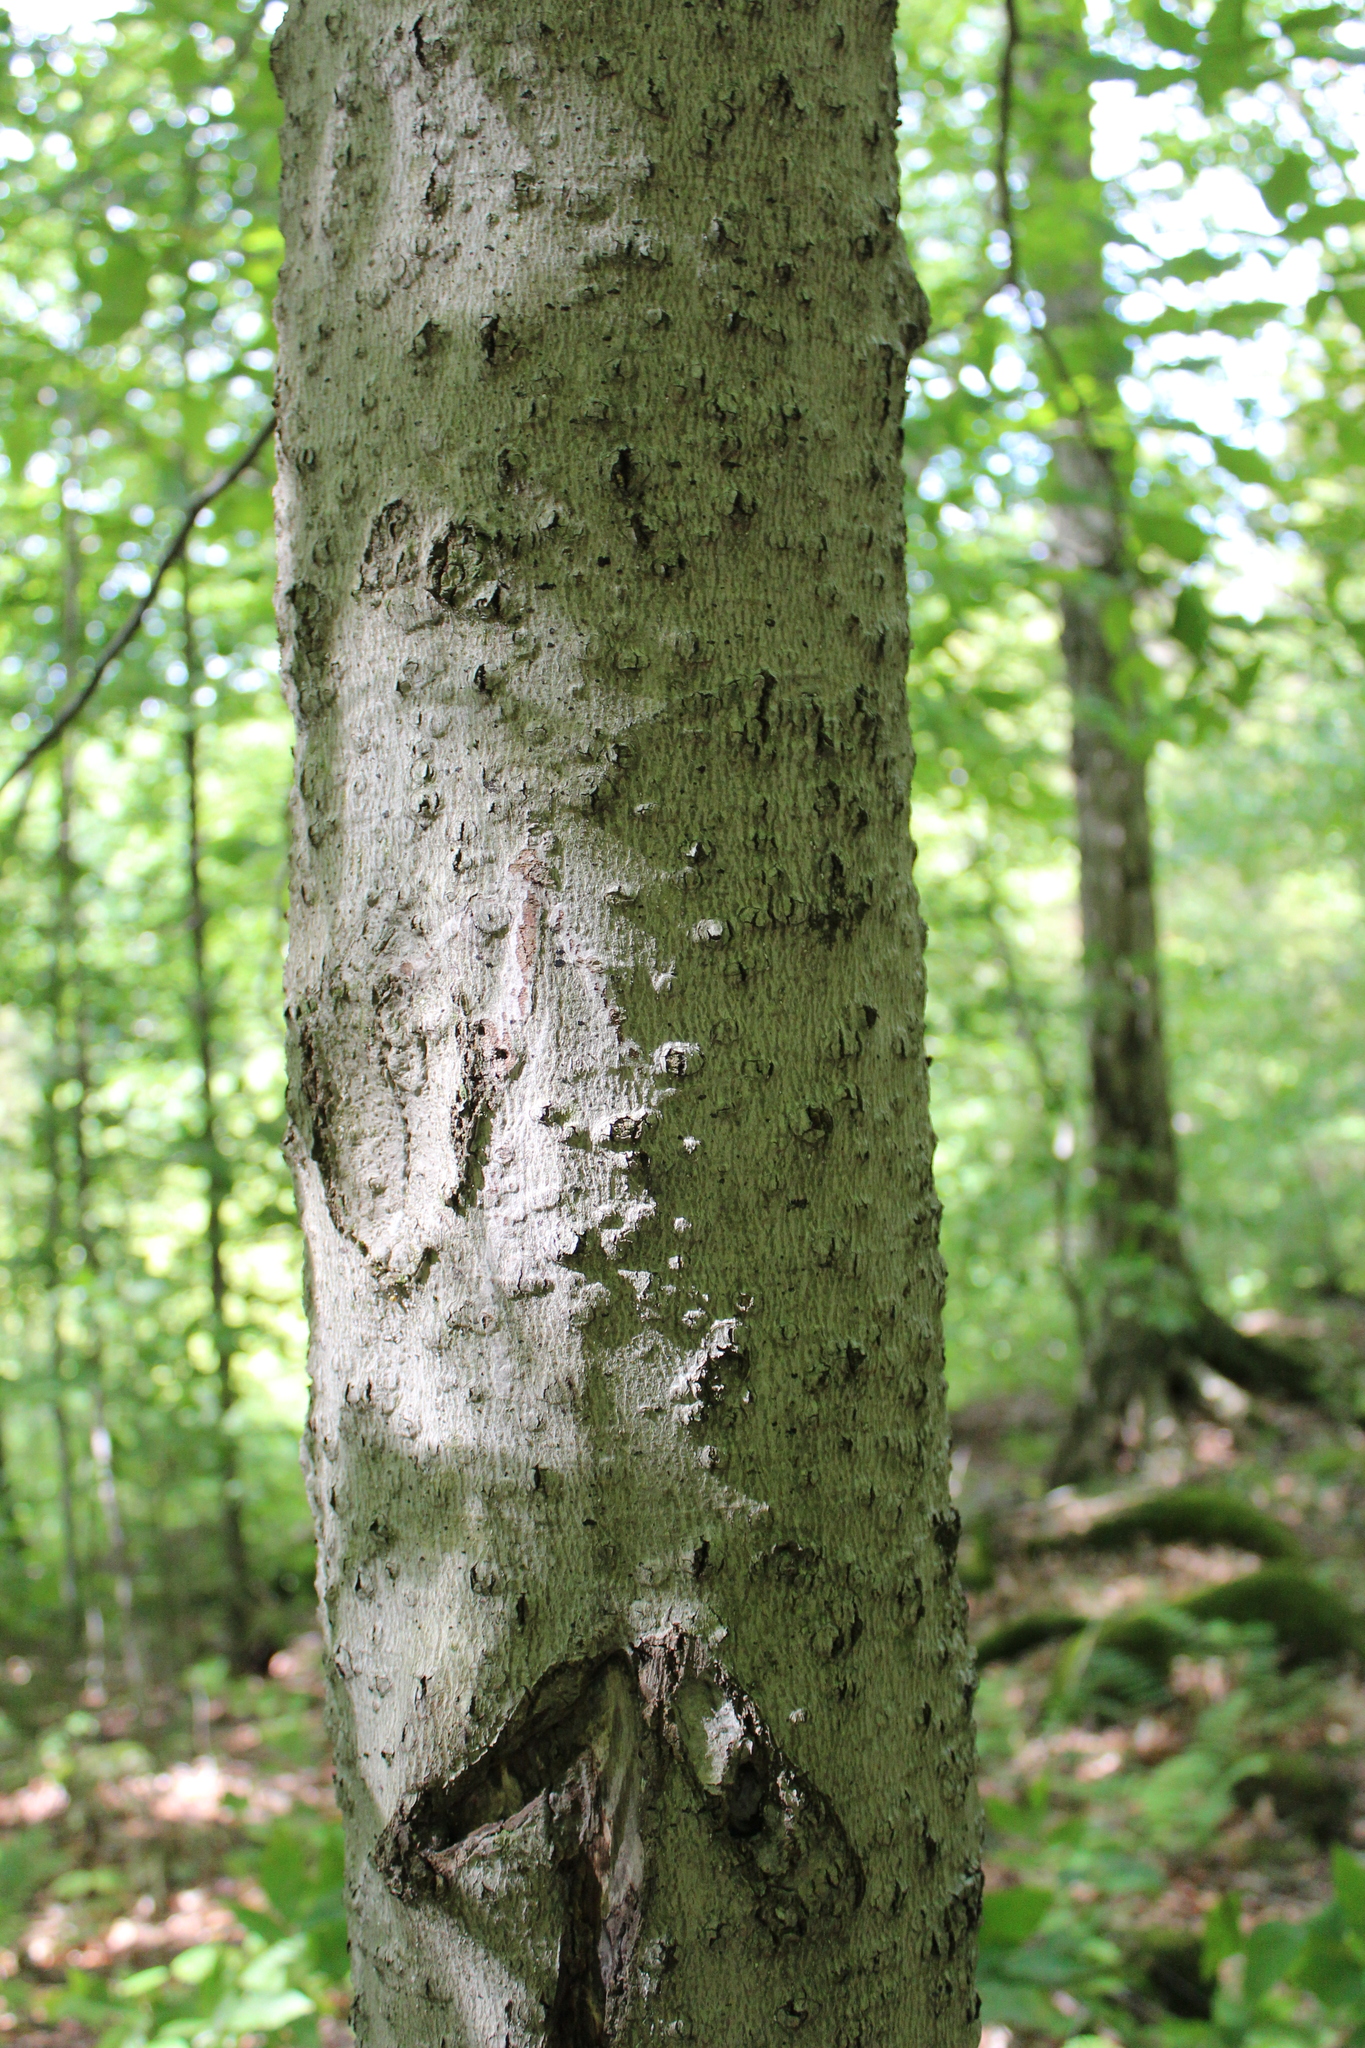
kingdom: Plantae
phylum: Tracheophyta
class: Magnoliopsida
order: Fagales
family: Fagaceae
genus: Fagus
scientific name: Fagus grandifolia
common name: American beech
